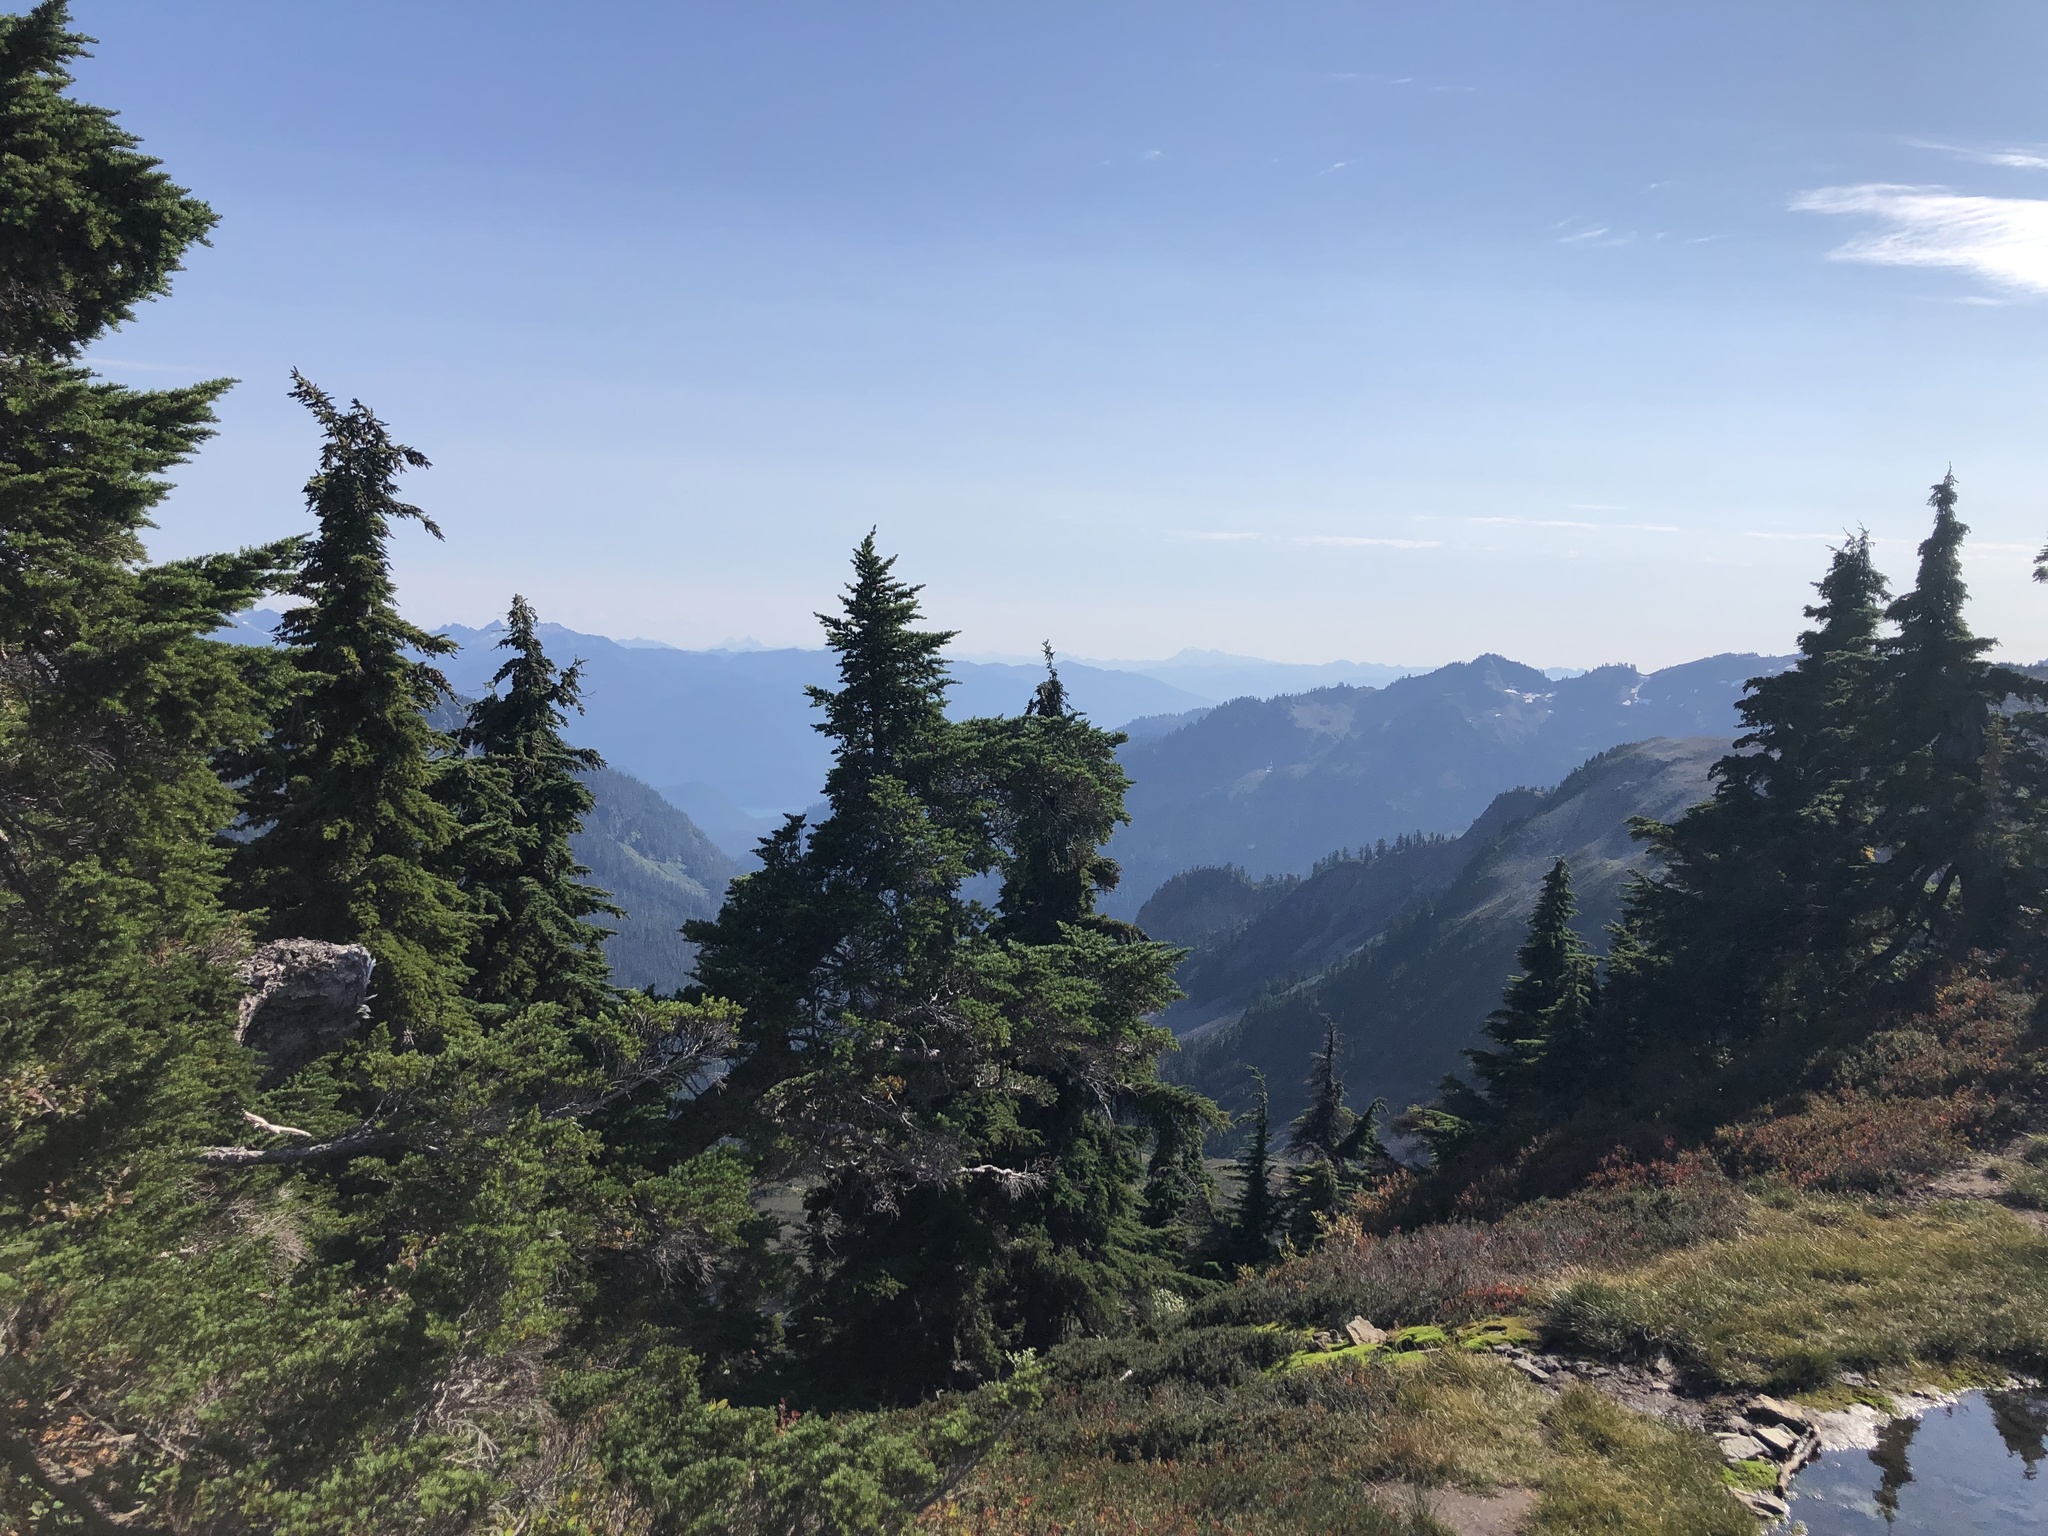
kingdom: Plantae
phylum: Tracheophyta
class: Pinopsida
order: Pinales
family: Pinaceae
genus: Tsuga
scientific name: Tsuga mertensiana
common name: Mountain hemlock
